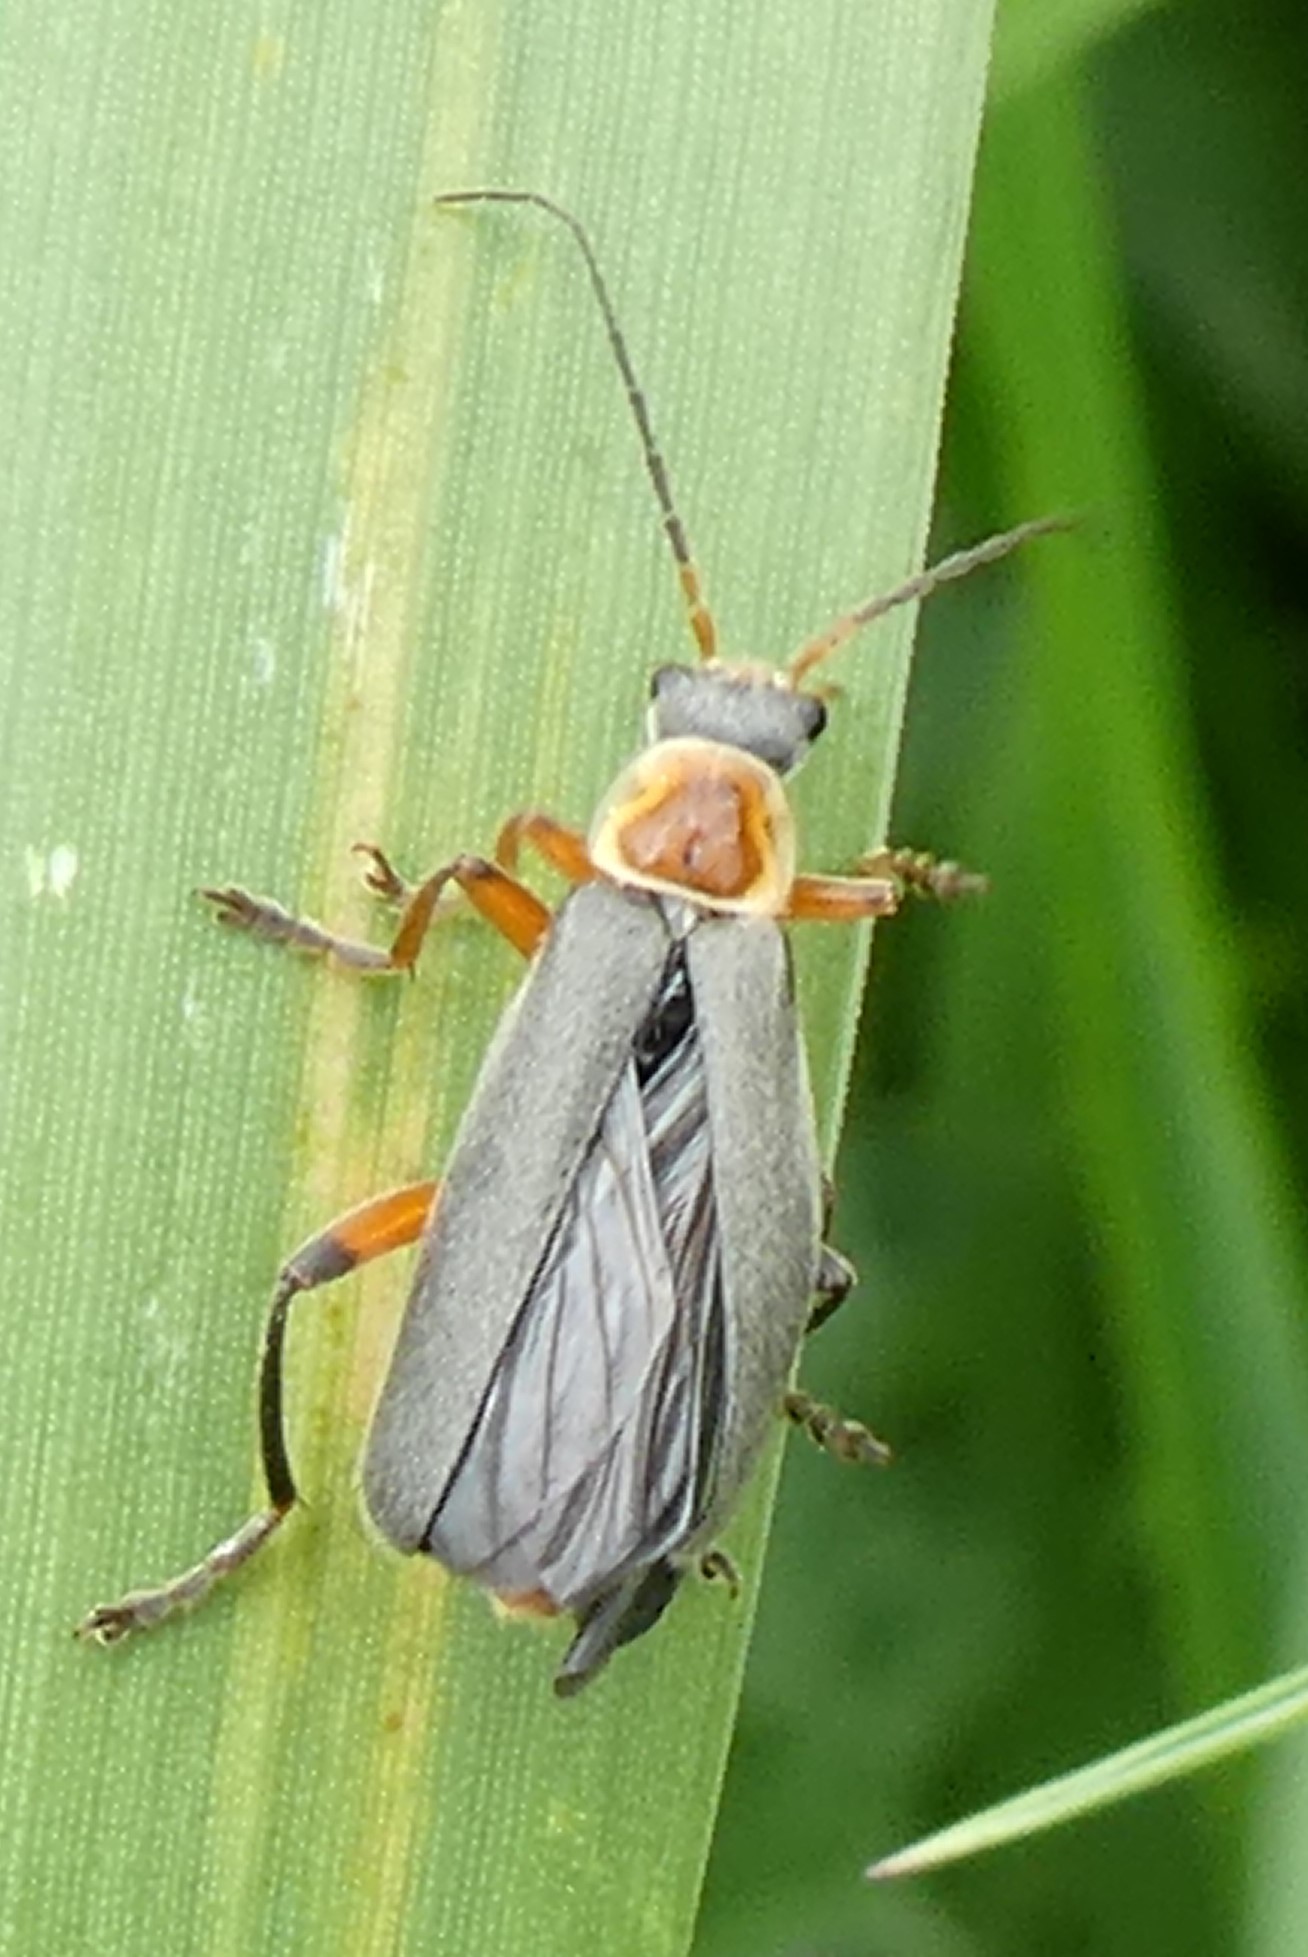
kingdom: Animalia
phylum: Arthropoda
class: Insecta
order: Coleoptera
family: Cantharidae
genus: Cantharis
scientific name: Cantharis nigricans
